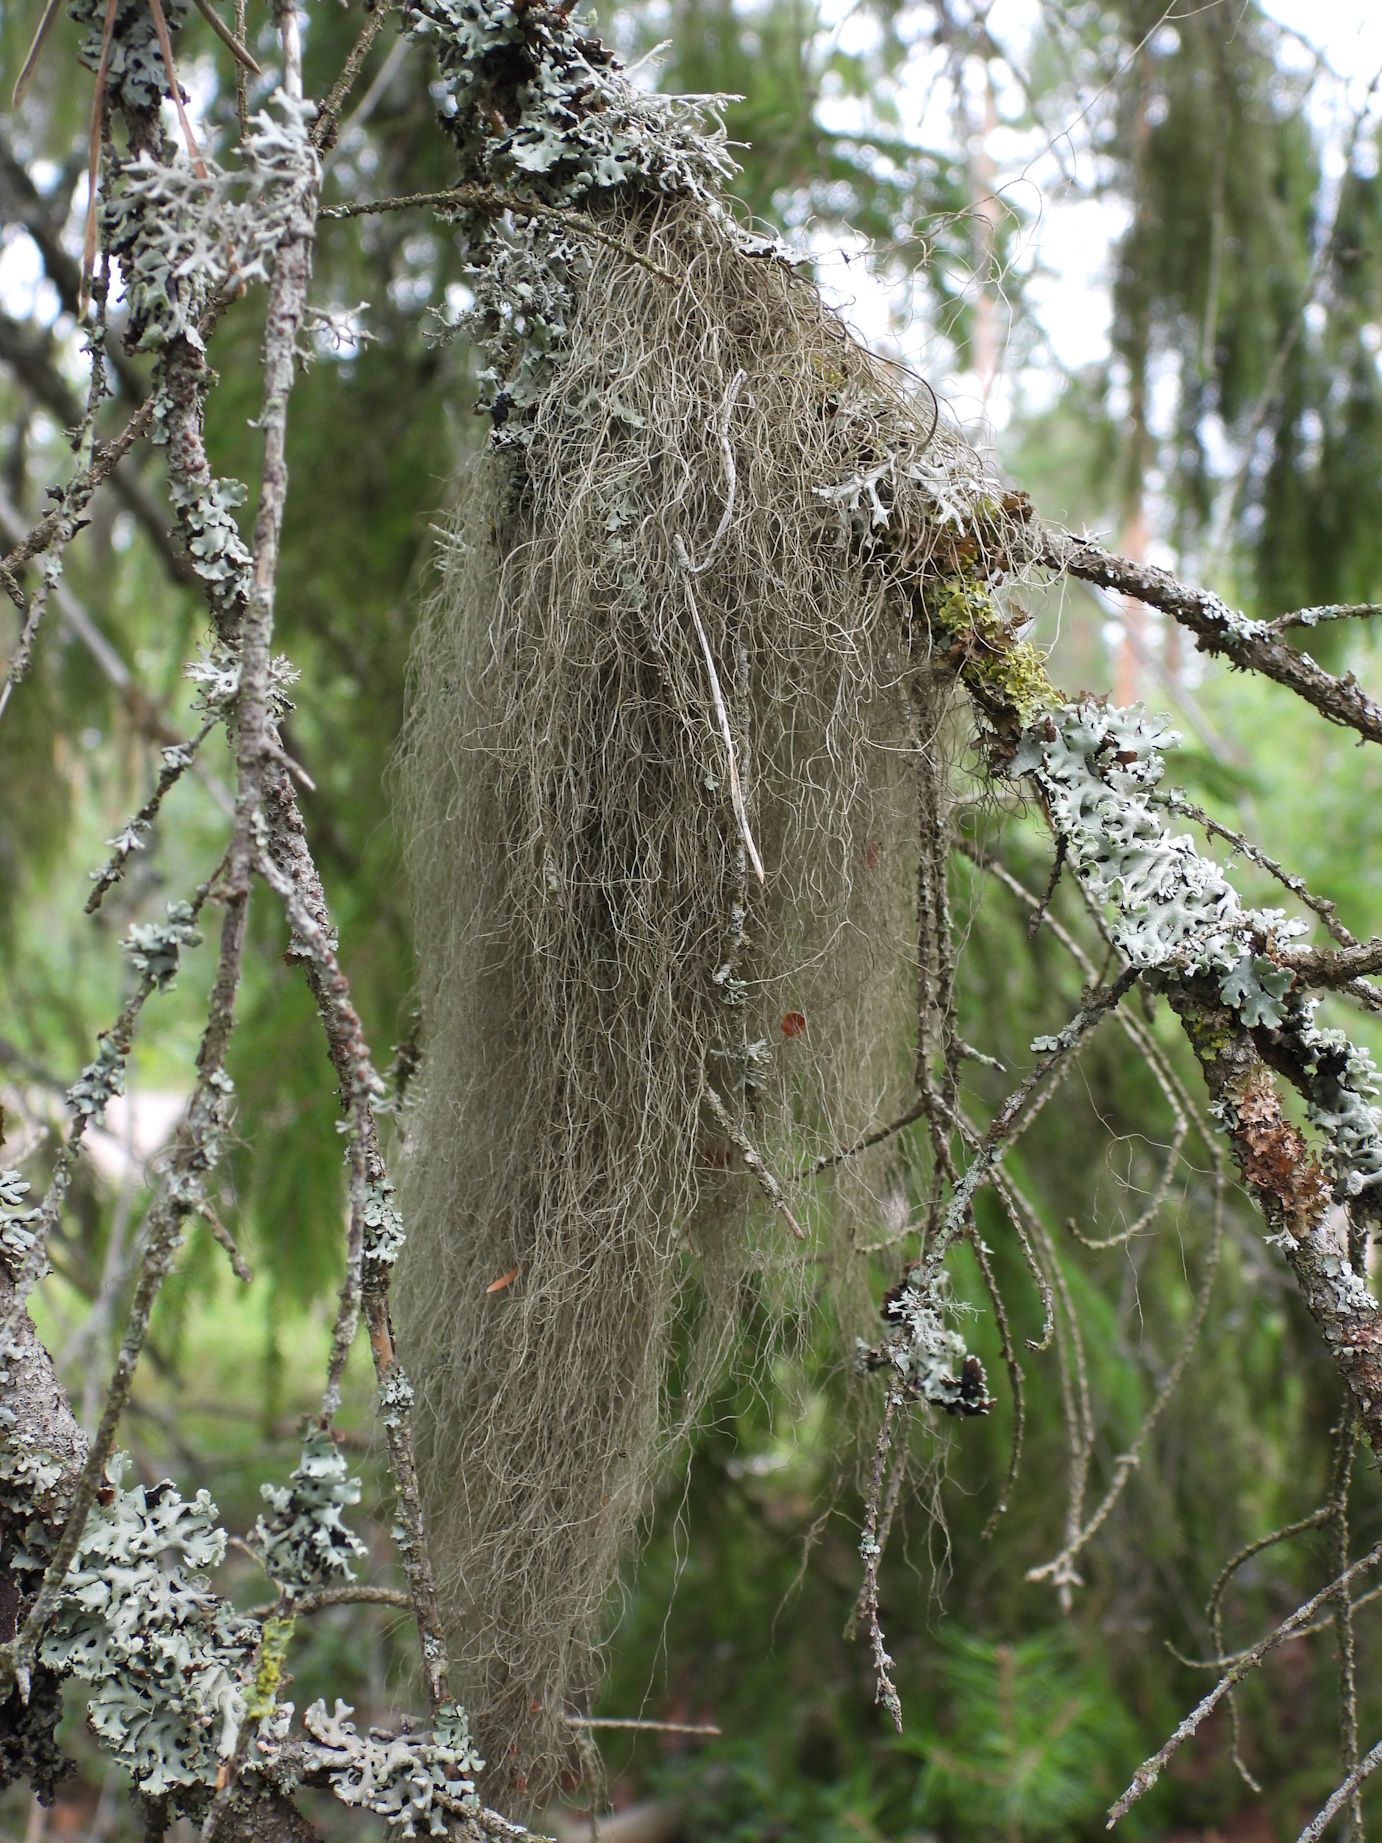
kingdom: Fungi
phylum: Ascomycota
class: Lecanoromycetes
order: Lecanorales
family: Parmeliaceae
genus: Bryoria
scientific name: Bryoria fuscescens
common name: Pale-footed horsehair lichen
